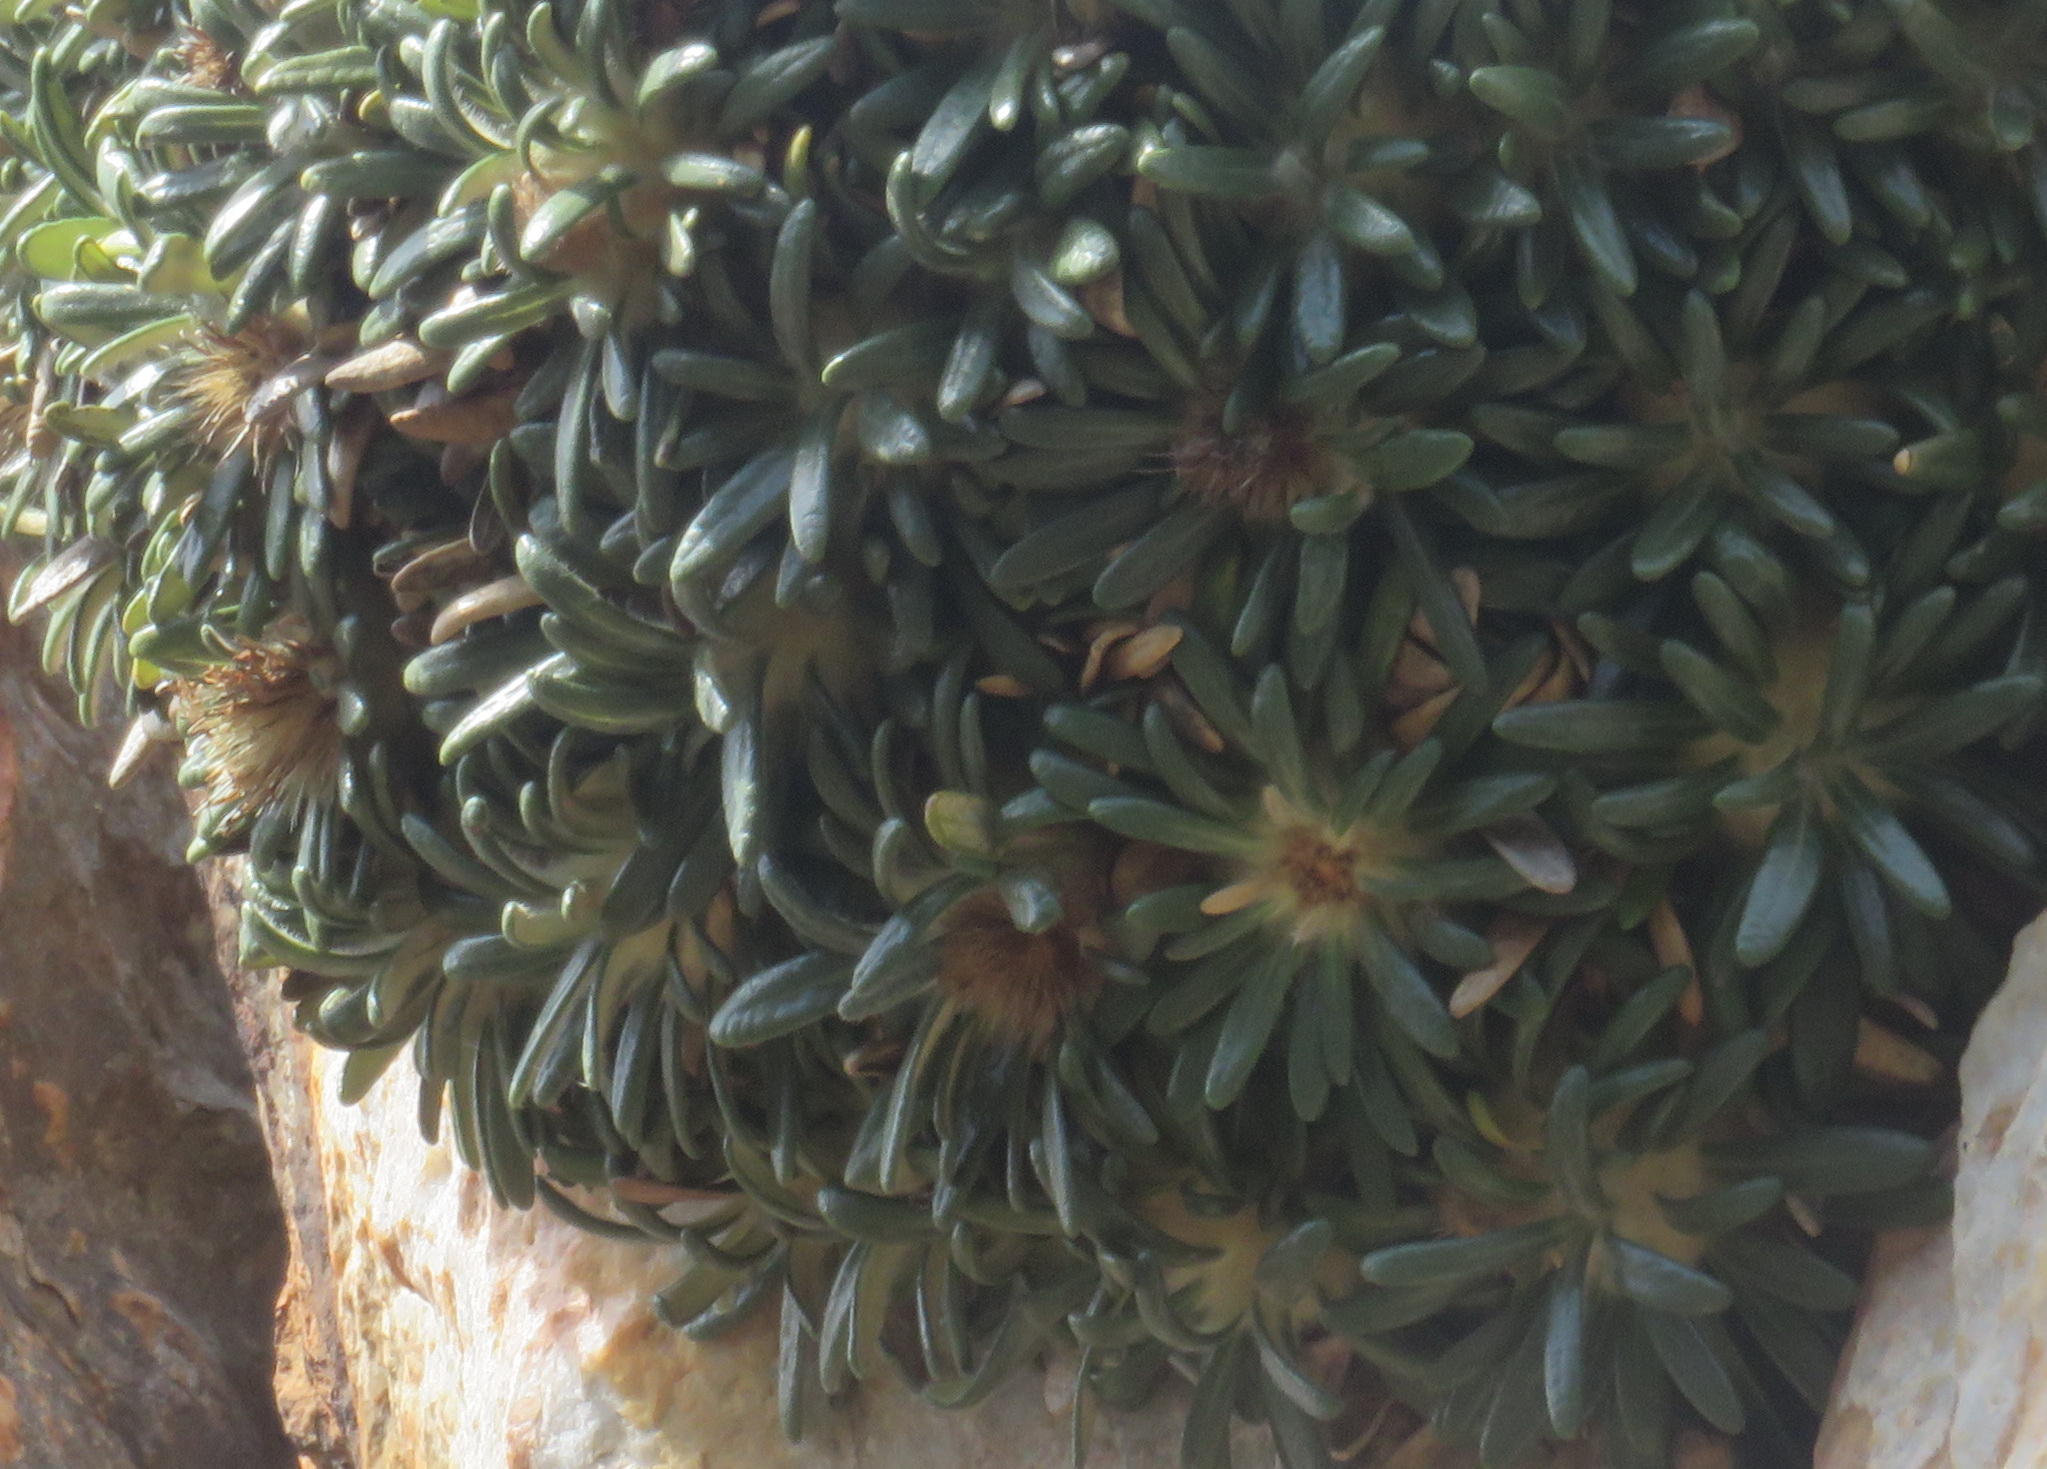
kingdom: Plantae
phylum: Tracheophyta
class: Magnoliopsida
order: Asterales
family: Asteraceae
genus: Oldenburgia
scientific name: Oldenburgia paradoxa
